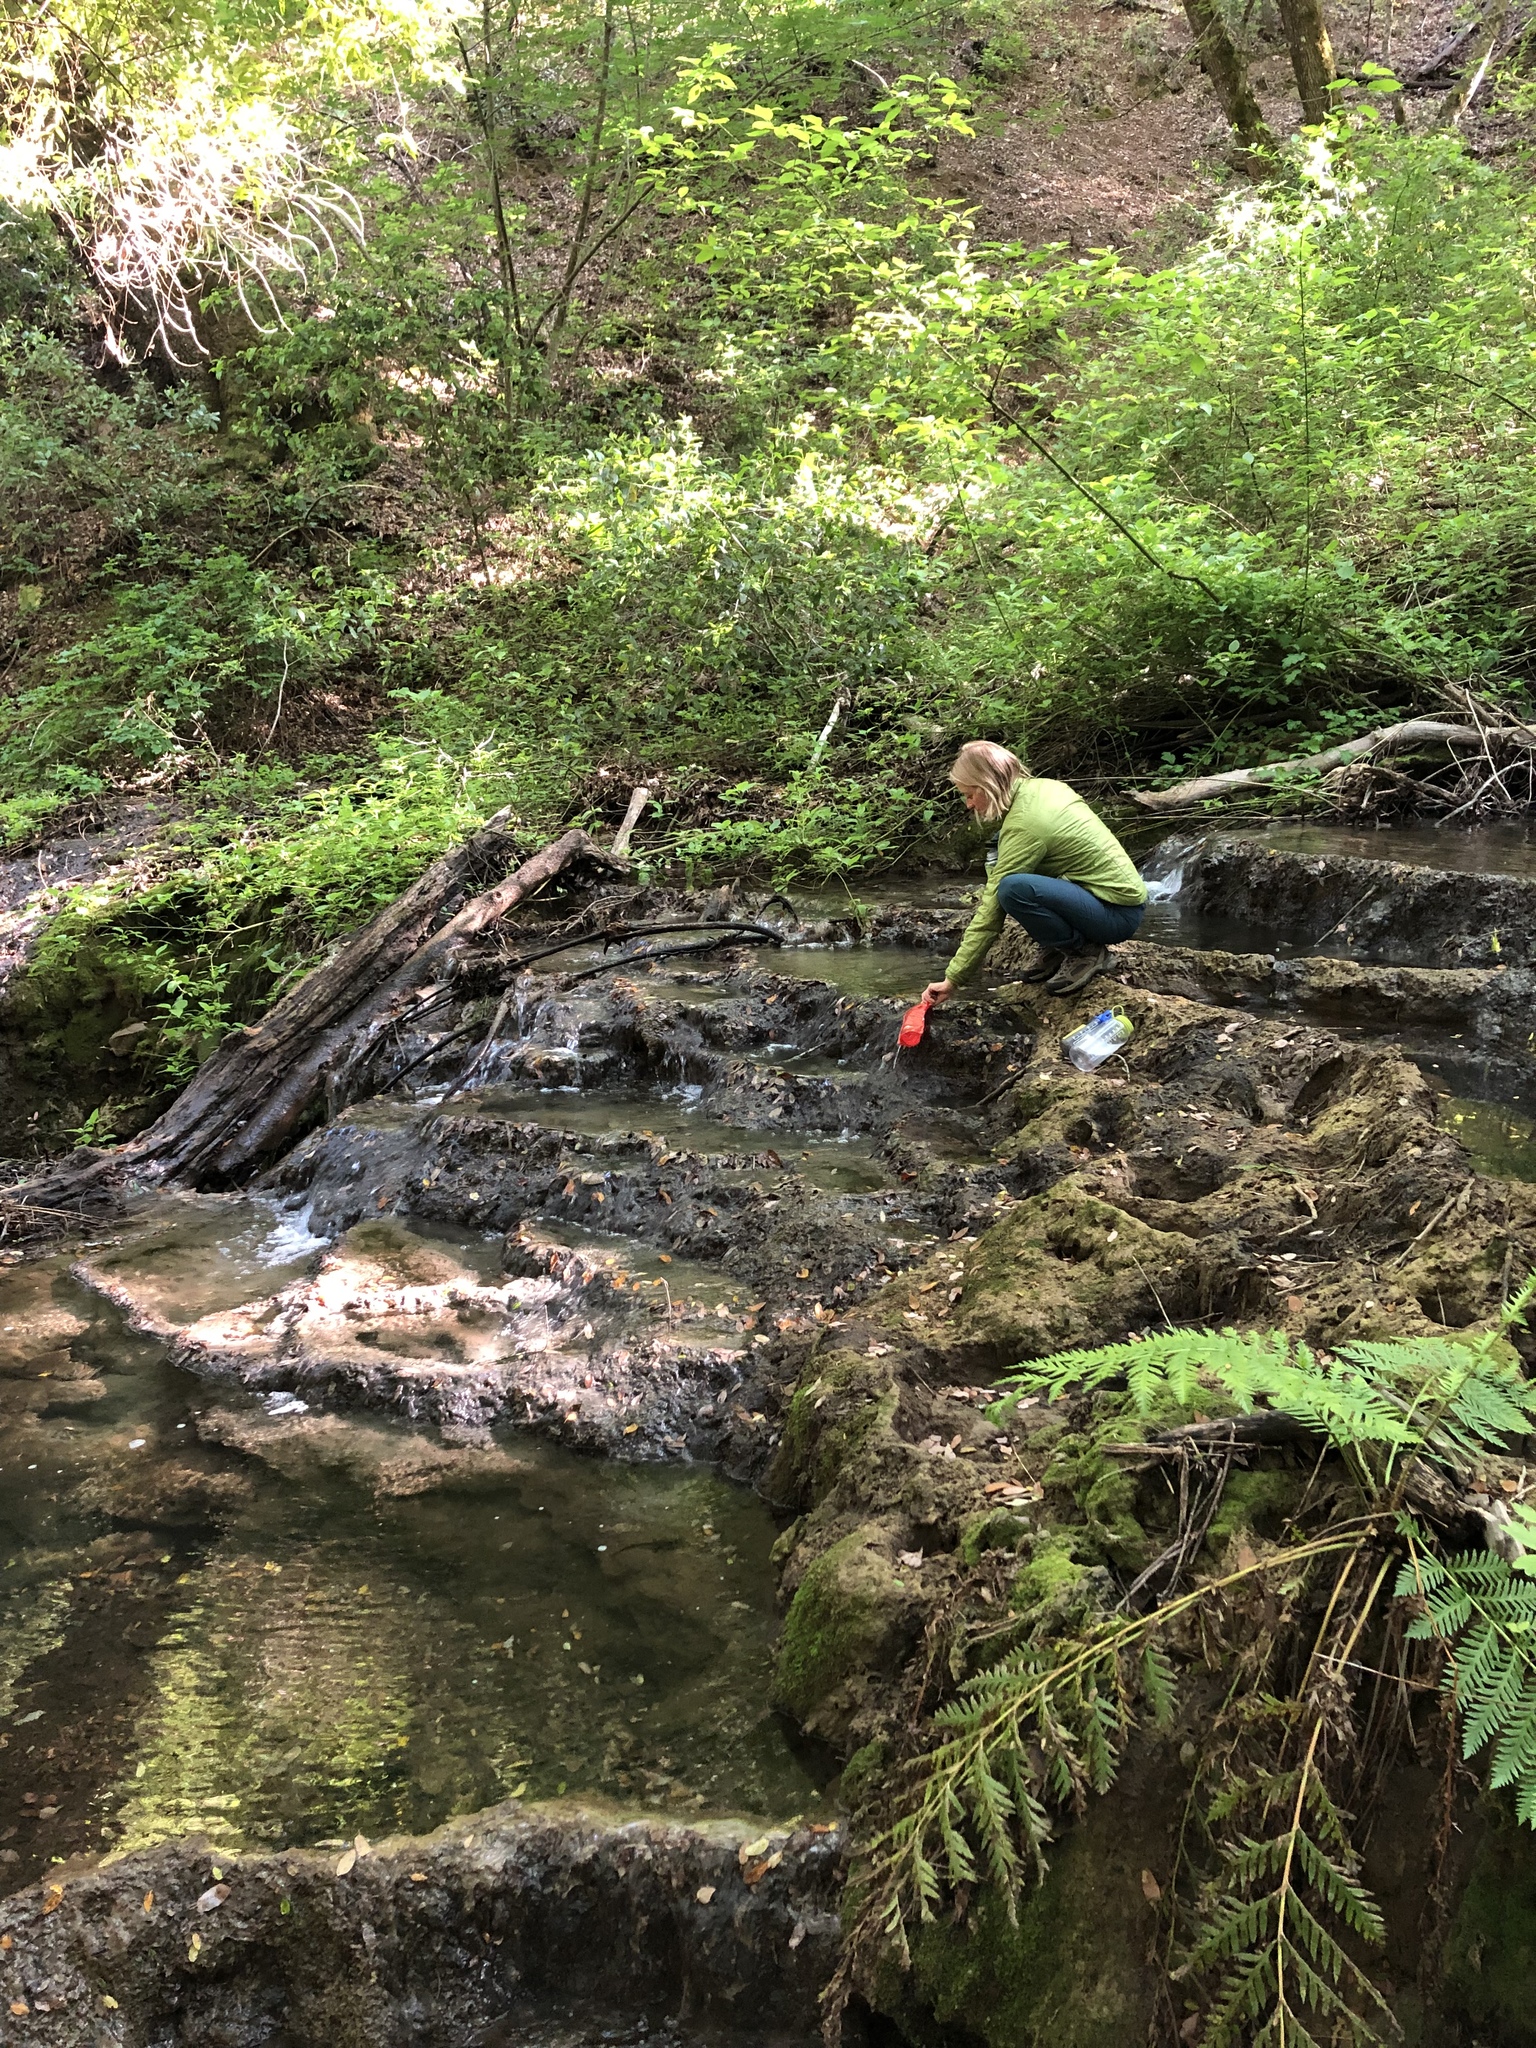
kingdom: Plantae
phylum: Tracheophyta
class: Polypodiopsida
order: Polypodiales
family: Blechnaceae
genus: Woodwardia
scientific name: Woodwardia fimbriata
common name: Giant chain fern
